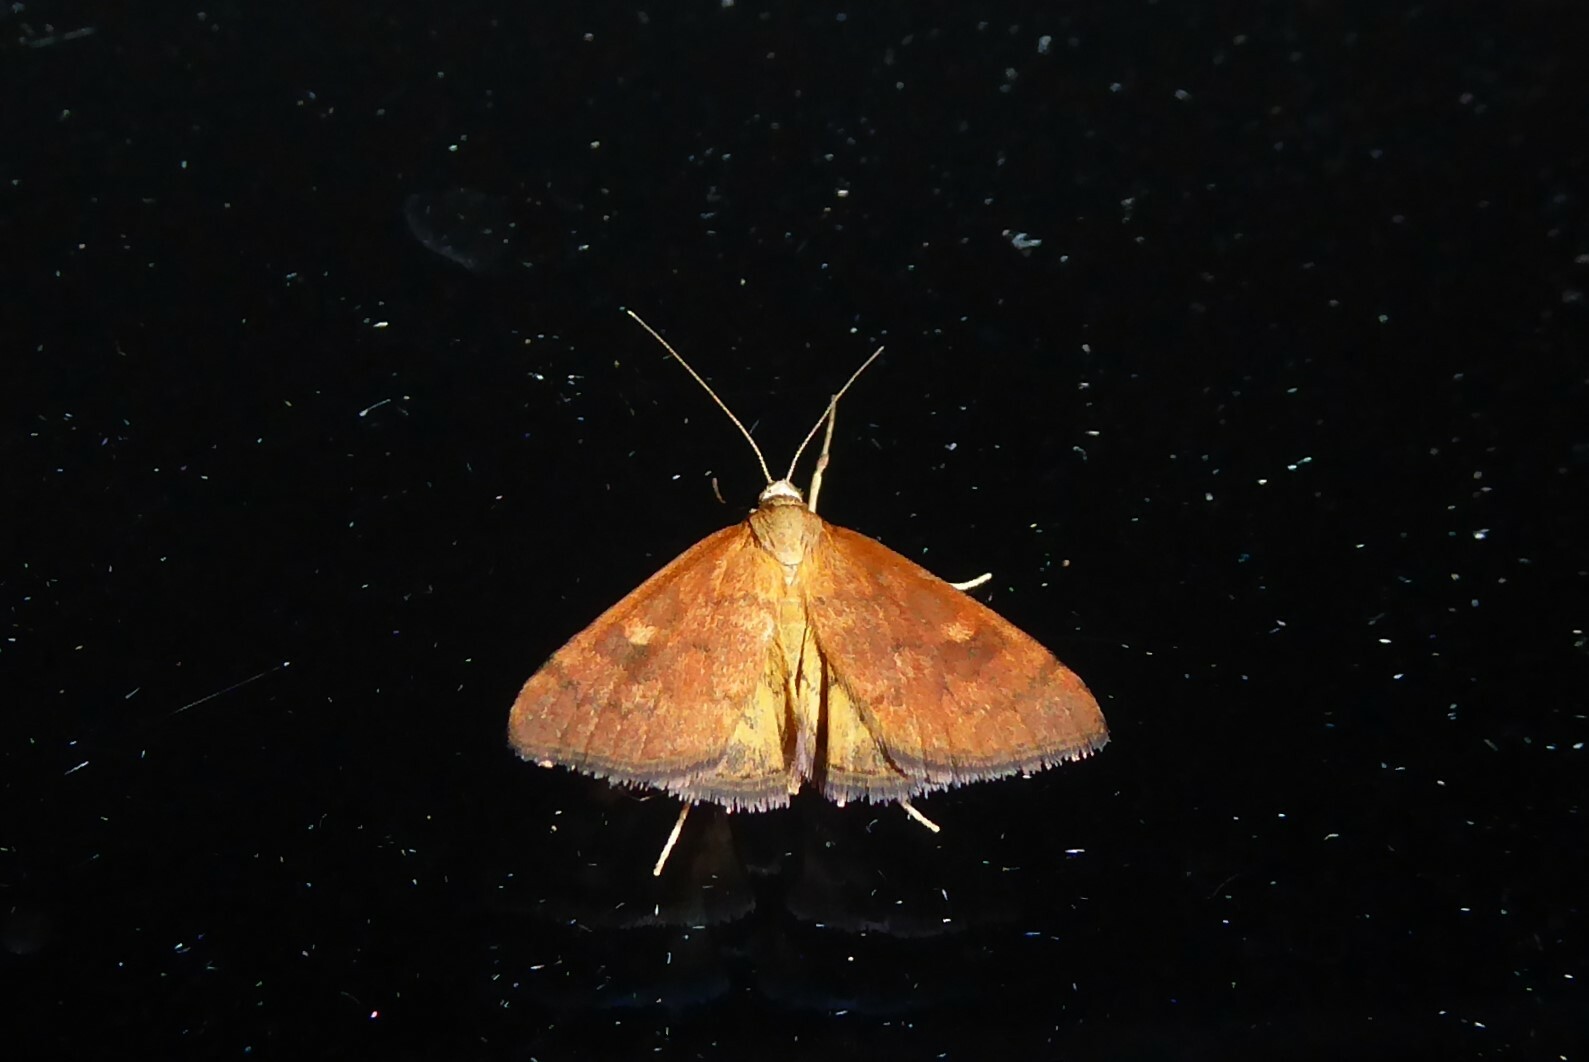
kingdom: Animalia
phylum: Arthropoda
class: Insecta
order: Lepidoptera
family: Crambidae
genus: Udea
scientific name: Udea Mnesictena flavidalis
